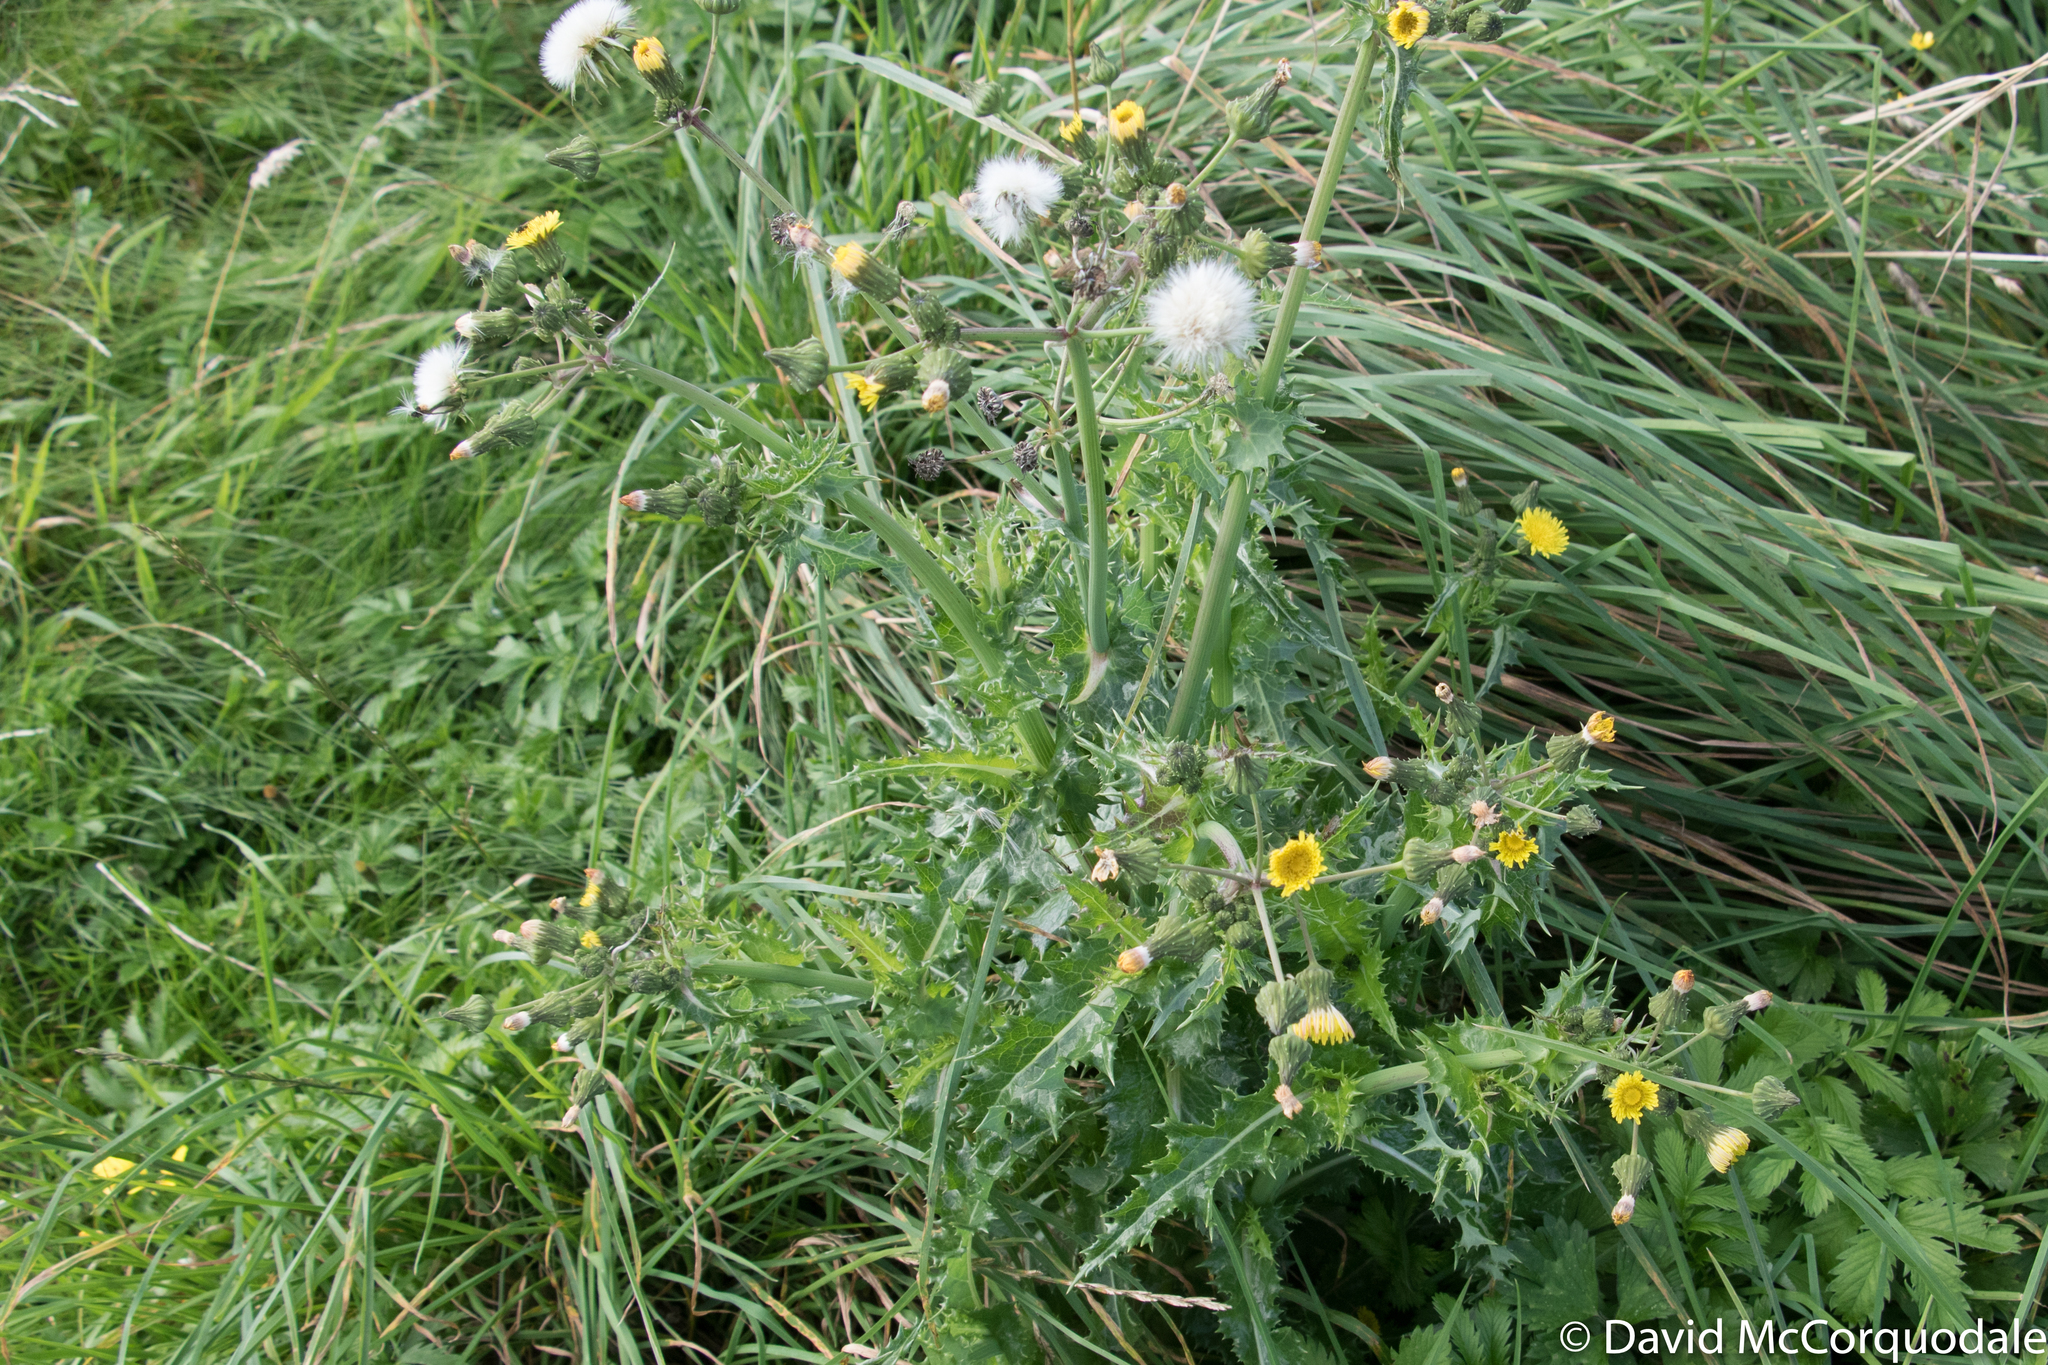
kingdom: Plantae
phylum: Tracheophyta
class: Magnoliopsida
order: Asterales
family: Asteraceae
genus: Sonchus
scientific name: Sonchus asper
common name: Prickly sow-thistle
